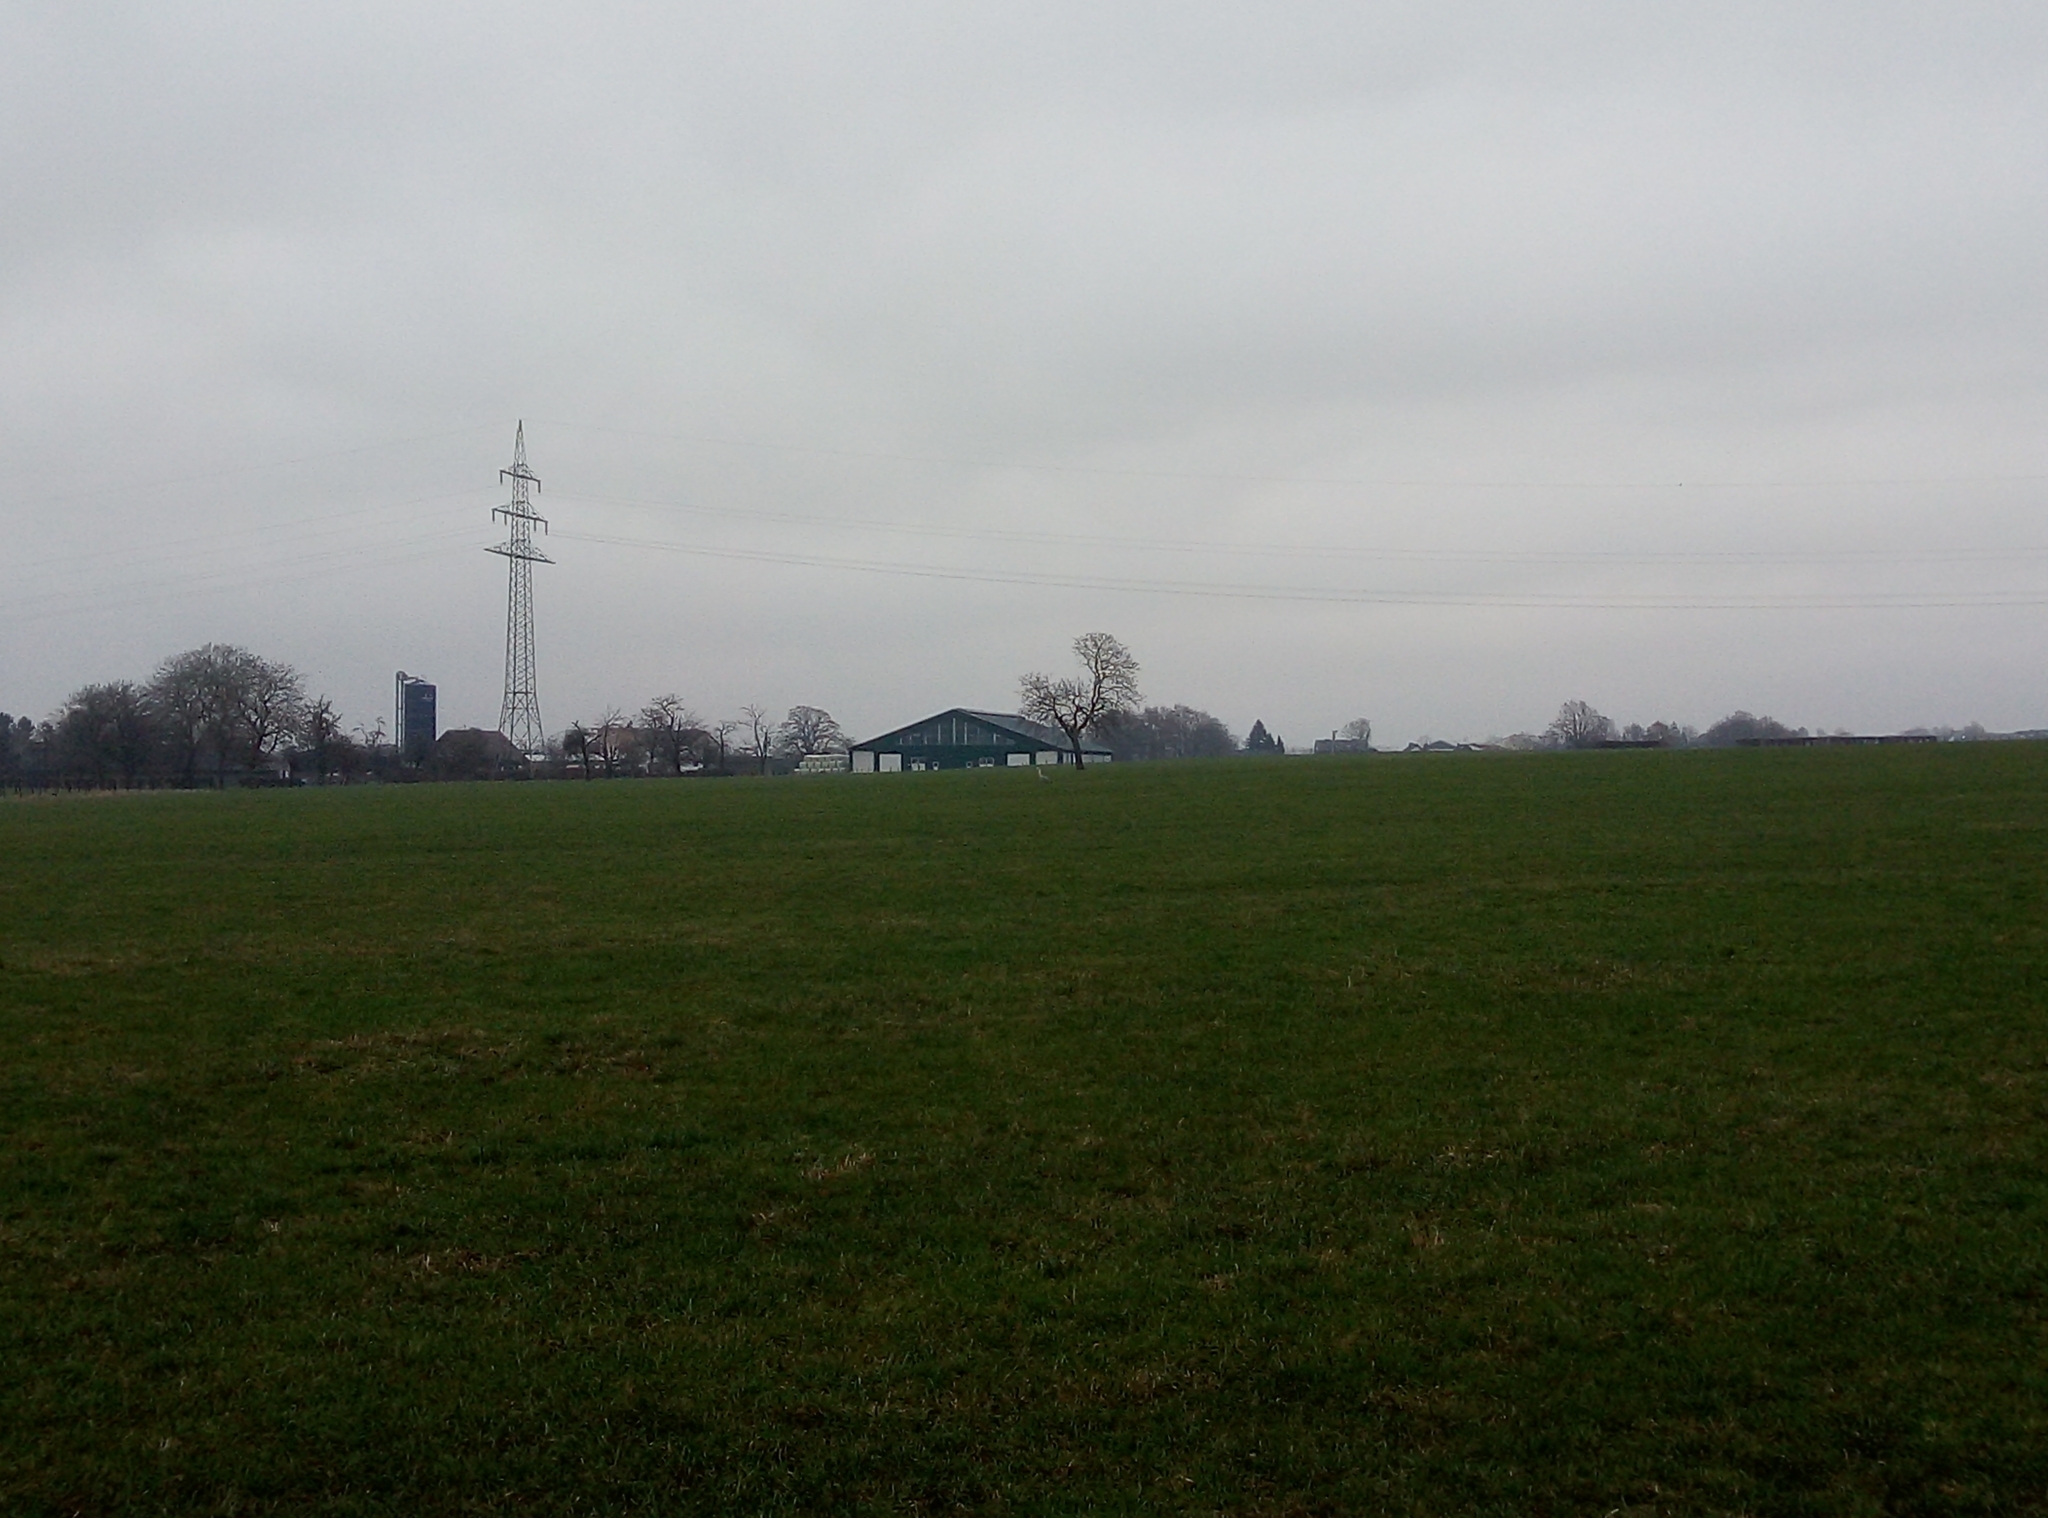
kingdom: Animalia
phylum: Chordata
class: Aves
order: Pelecaniformes
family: Ardeidae
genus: Ardea
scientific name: Ardea cinerea
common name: Grey heron
